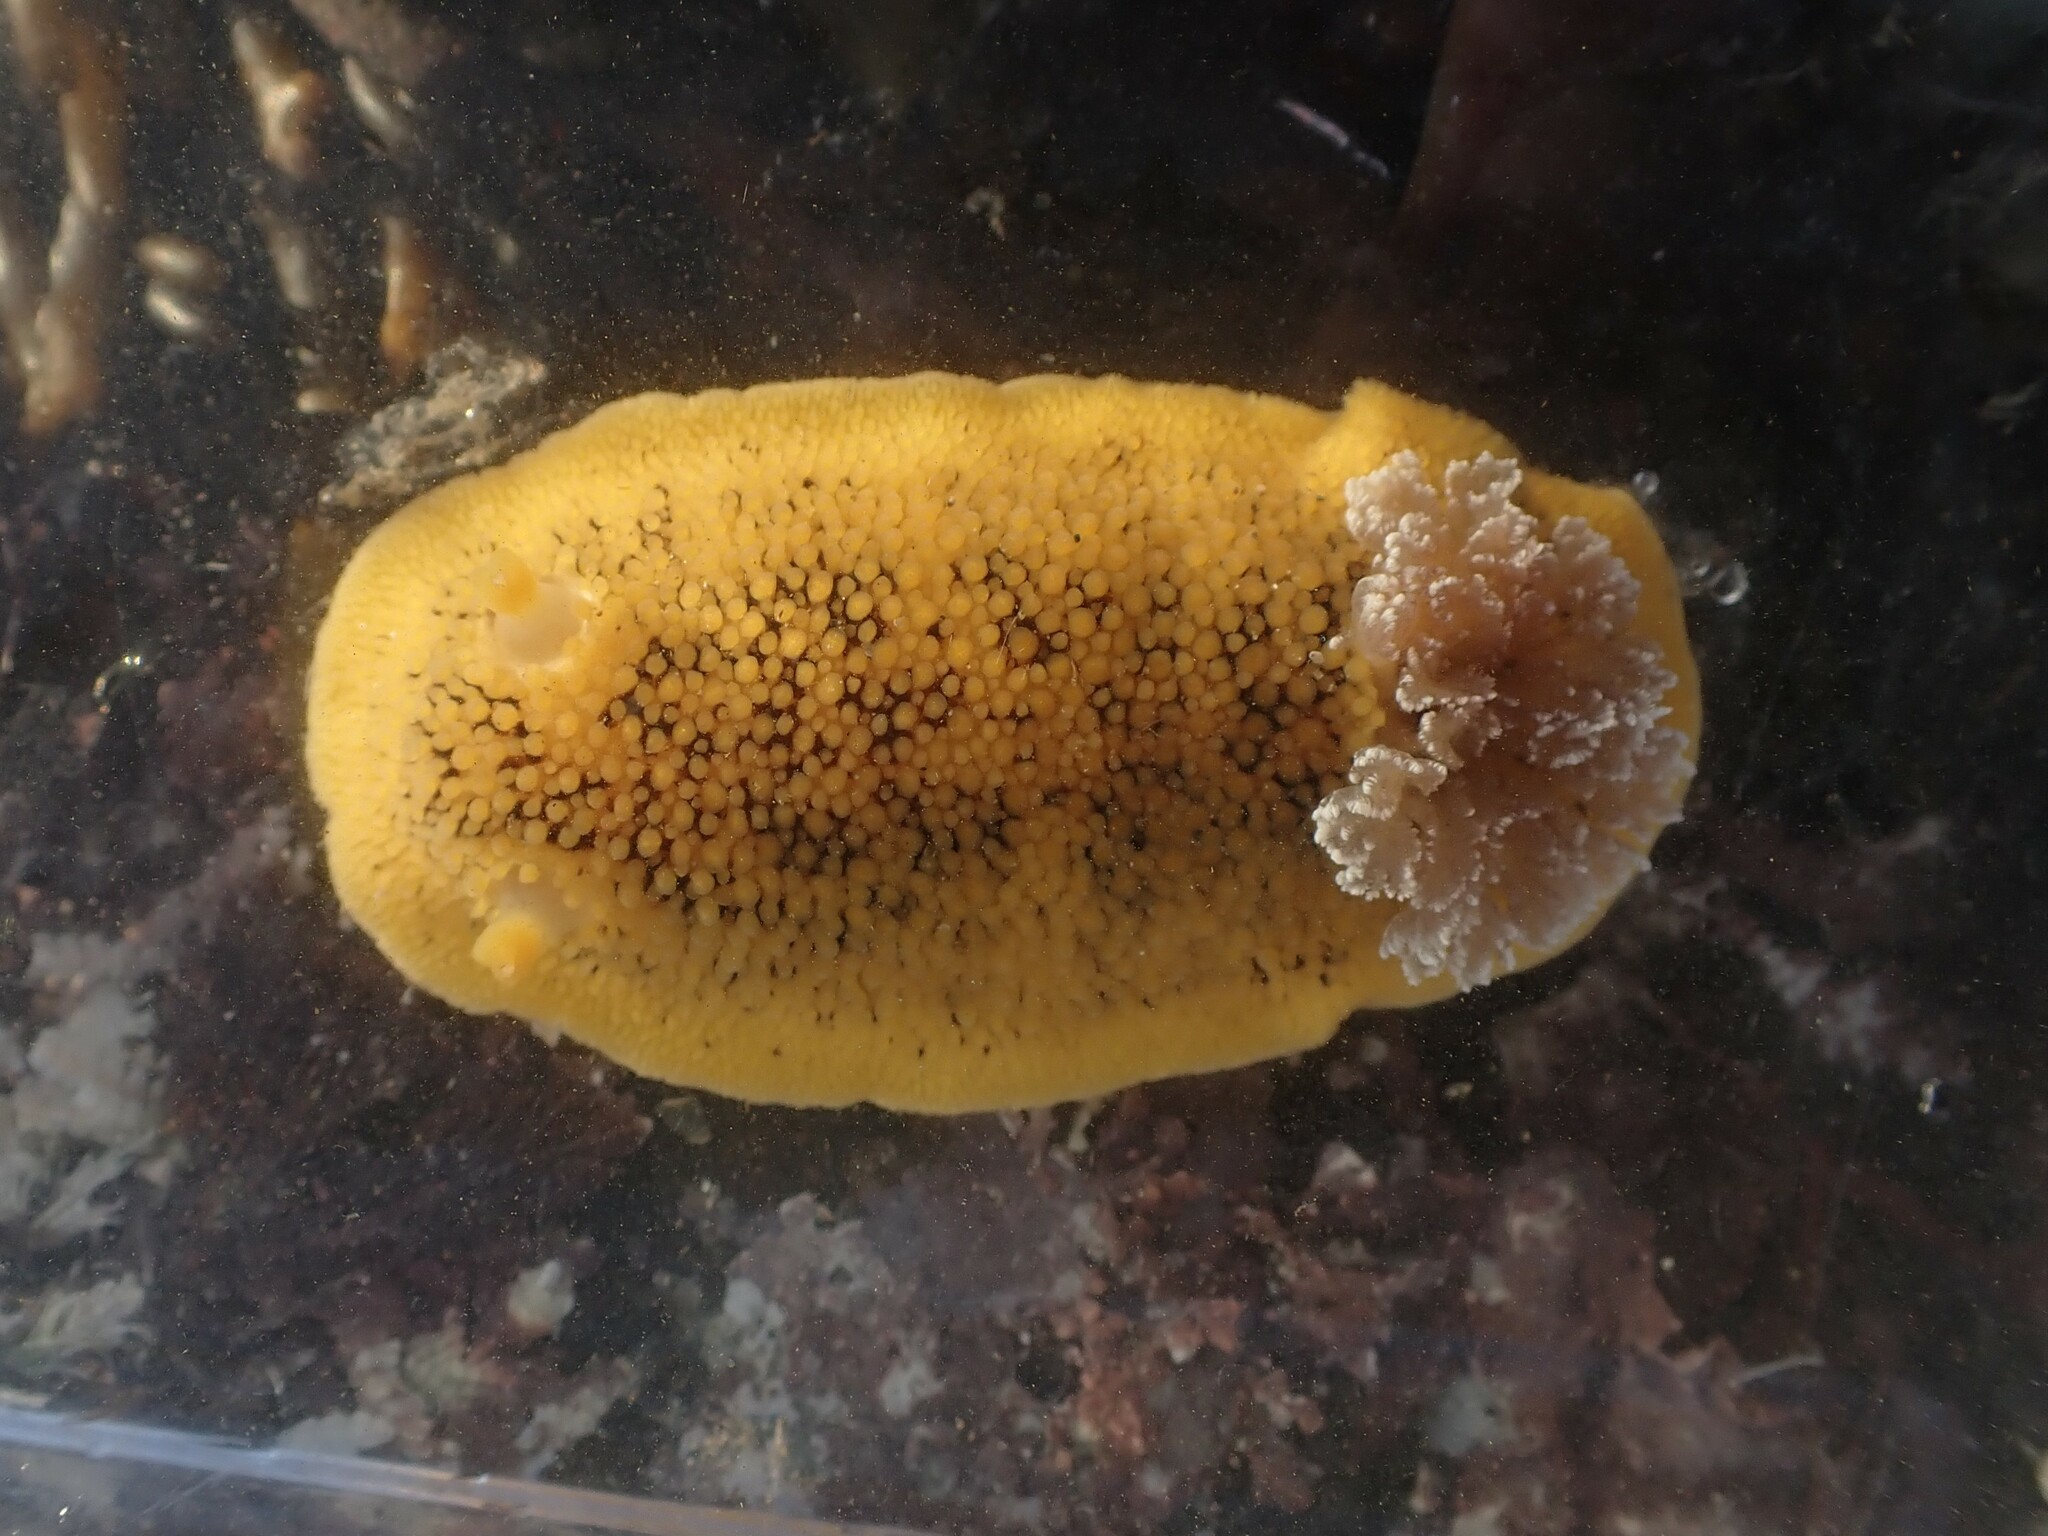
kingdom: Animalia
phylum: Mollusca
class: Gastropoda
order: Nudibranchia
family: Discodorididae
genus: Peltodoris
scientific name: Peltodoris nobilis
